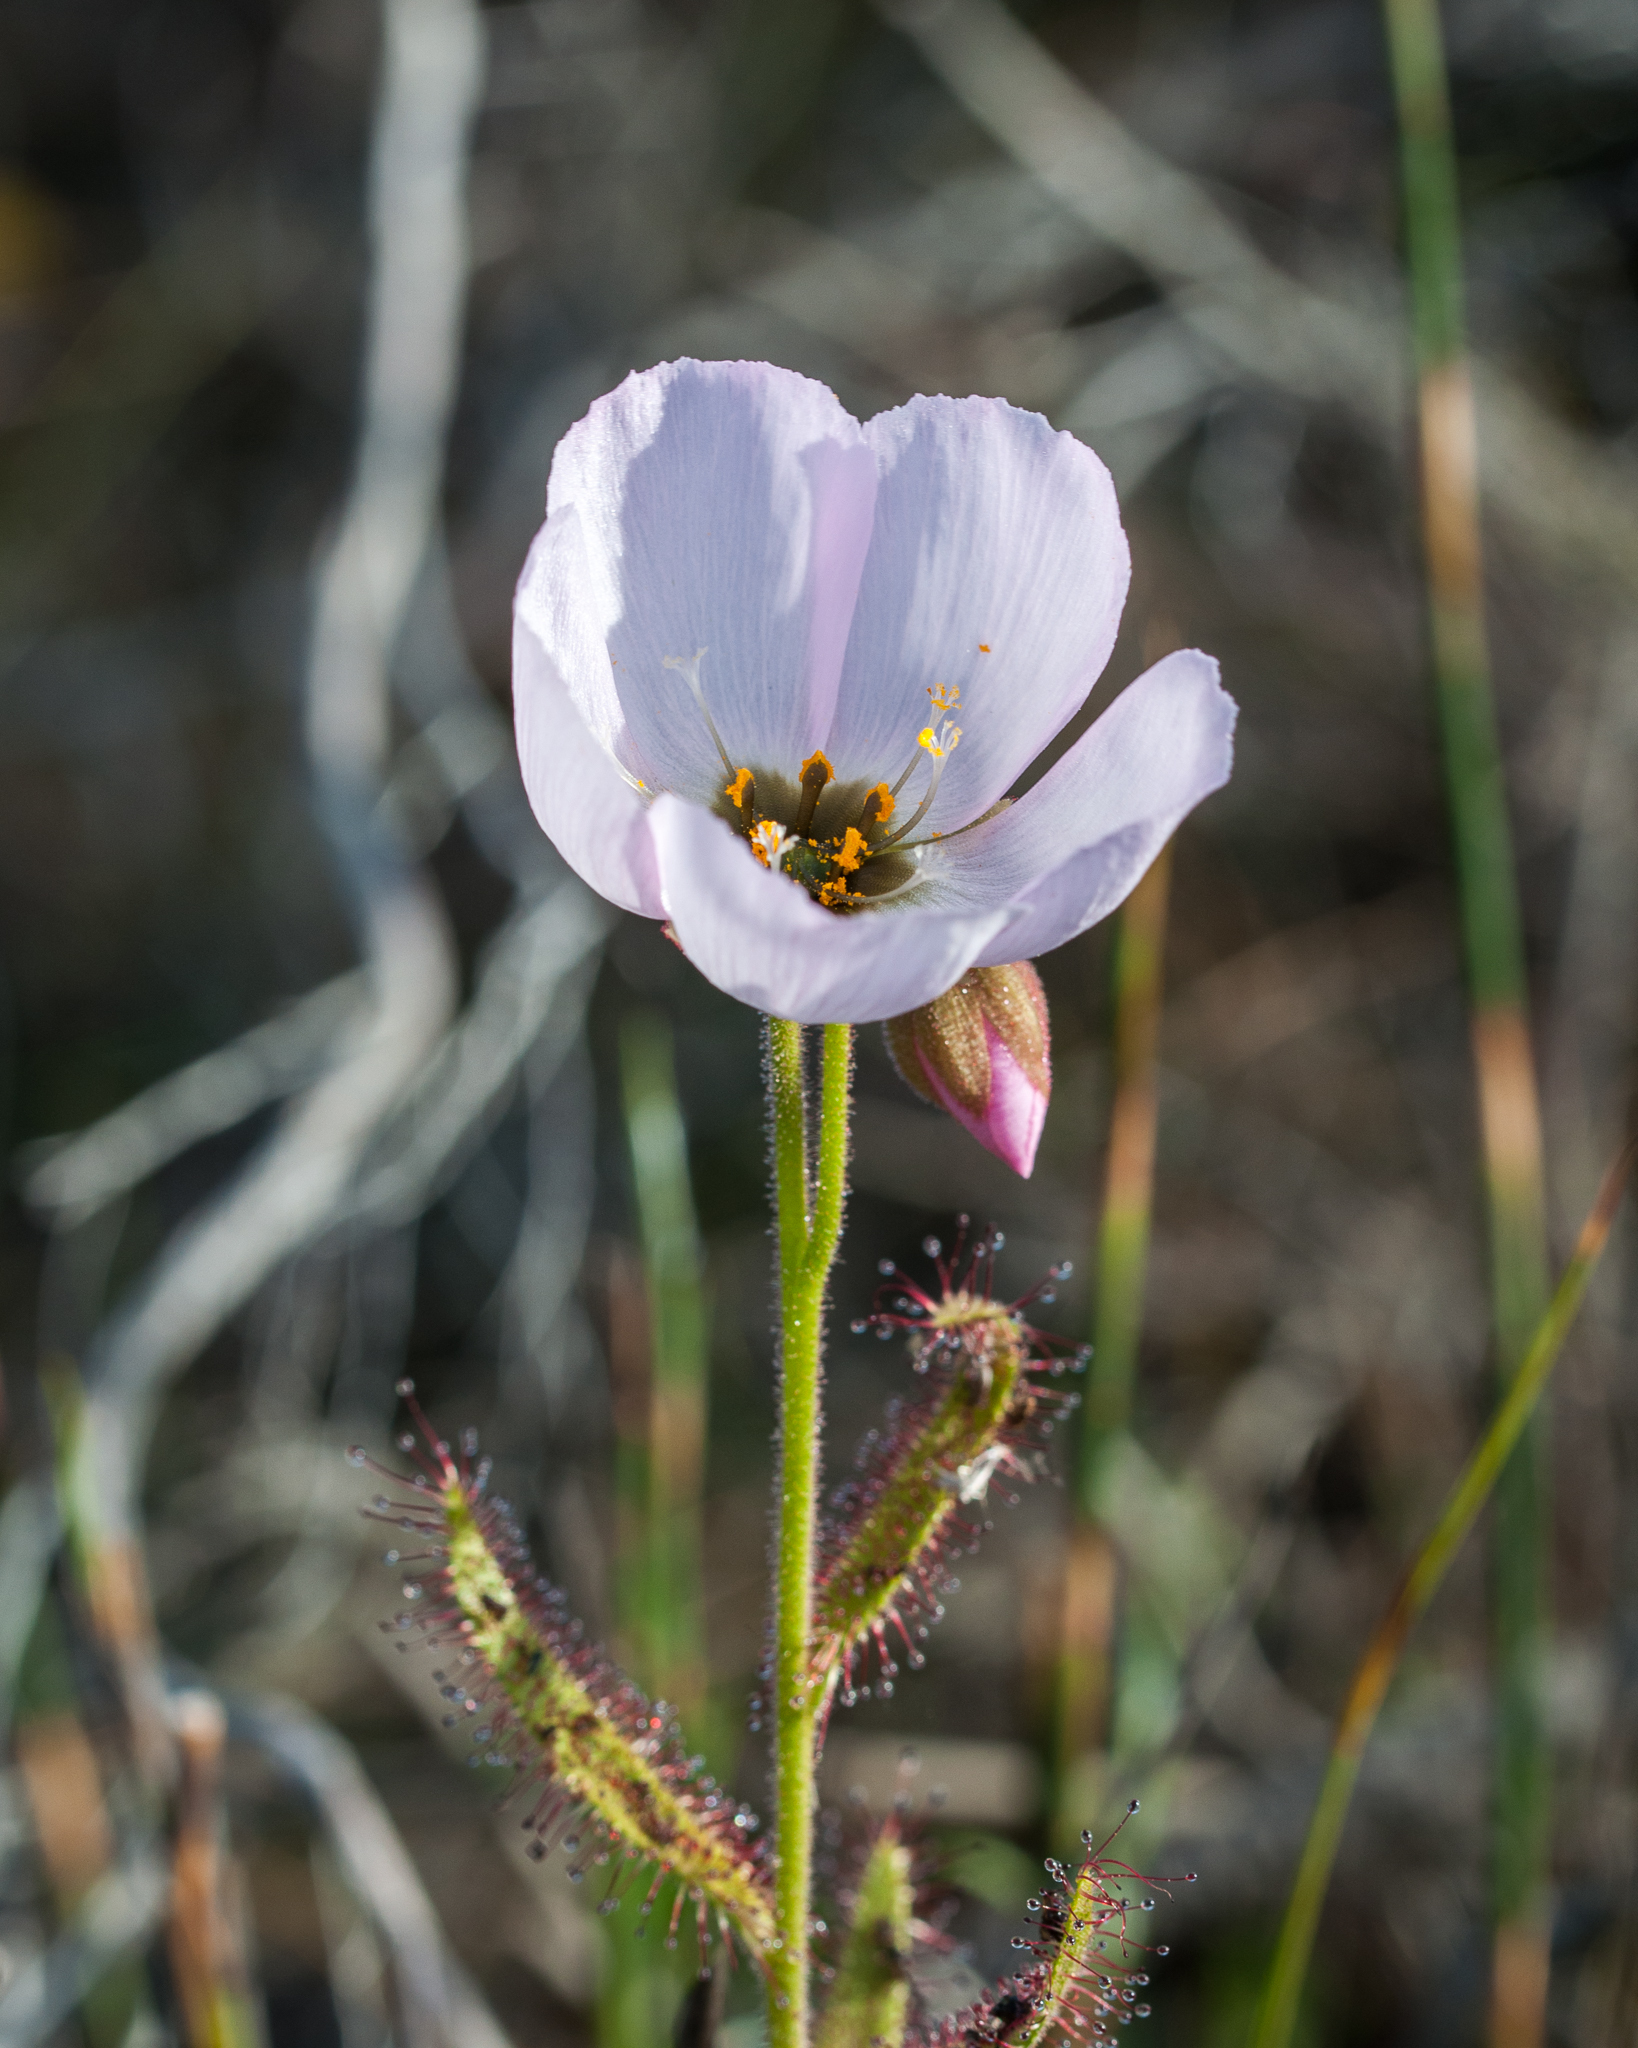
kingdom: Plantae
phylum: Tracheophyta
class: Magnoliopsida
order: Caryophyllales
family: Droseraceae
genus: Drosera
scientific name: Drosera cistiflora
